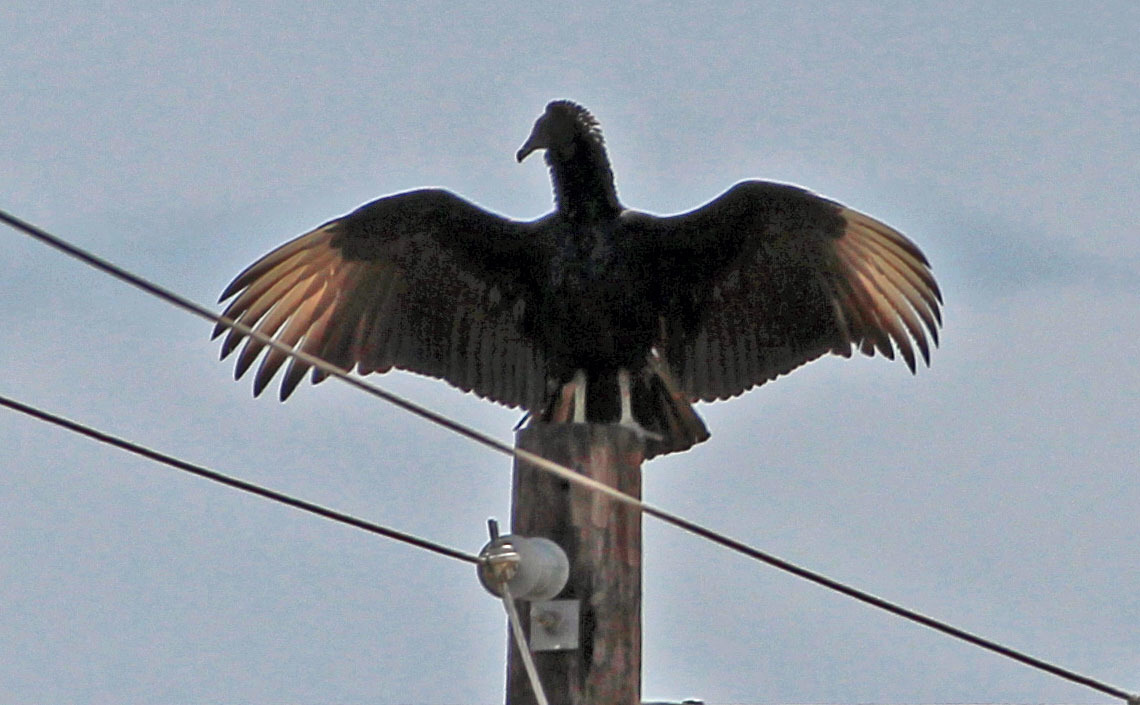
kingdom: Animalia
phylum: Chordata
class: Aves
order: Accipitriformes
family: Cathartidae
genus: Coragyps
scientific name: Coragyps atratus
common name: Black vulture
